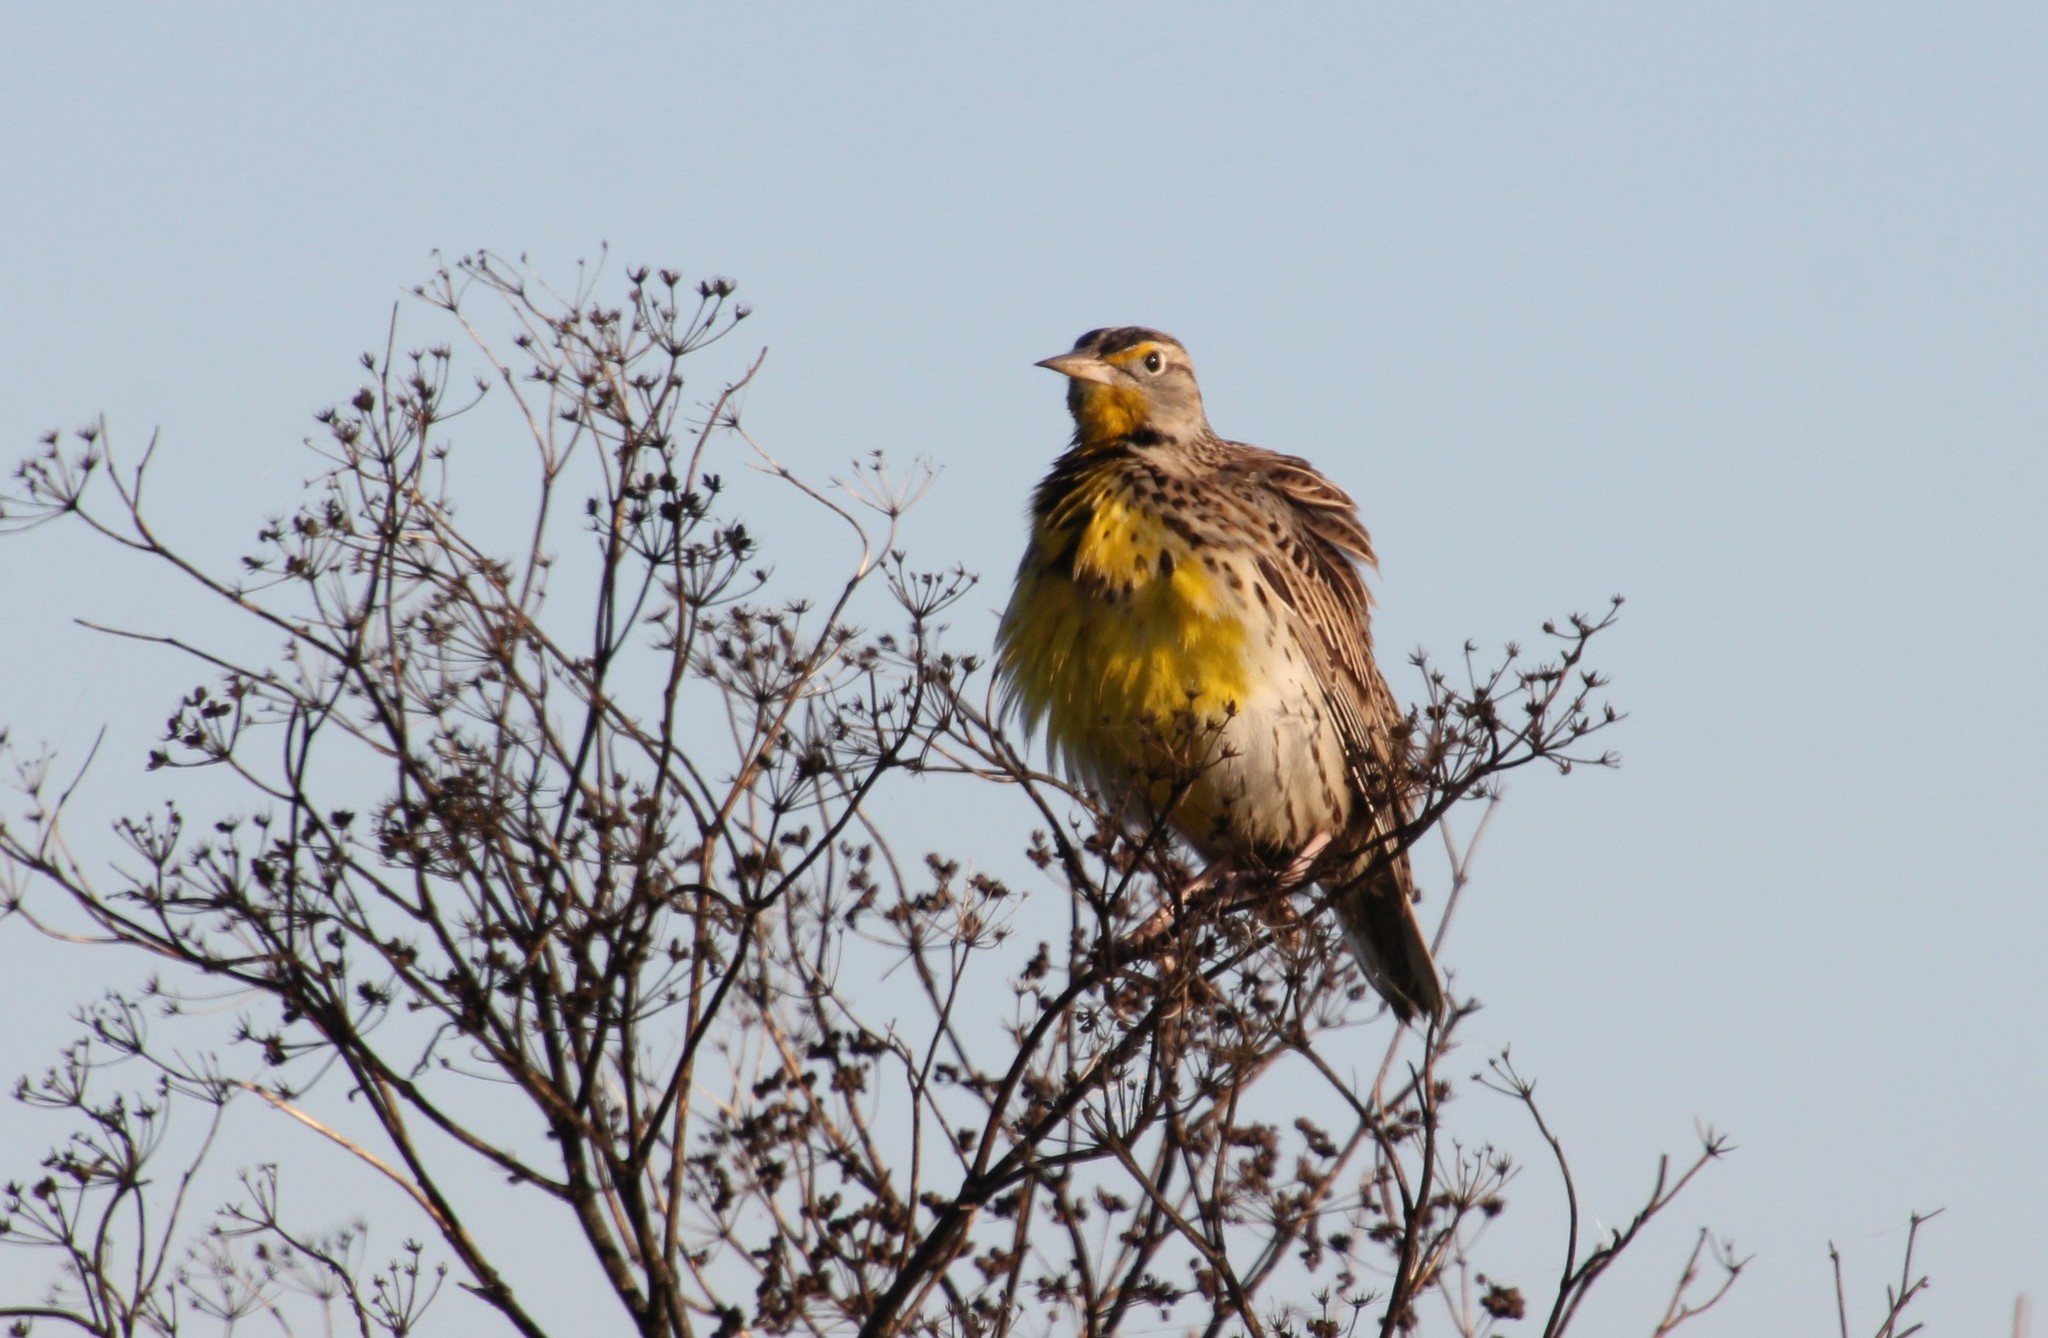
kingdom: Animalia
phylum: Chordata
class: Aves
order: Passeriformes
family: Icteridae
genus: Sturnella
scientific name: Sturnella neglecta
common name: Western meadowlark
